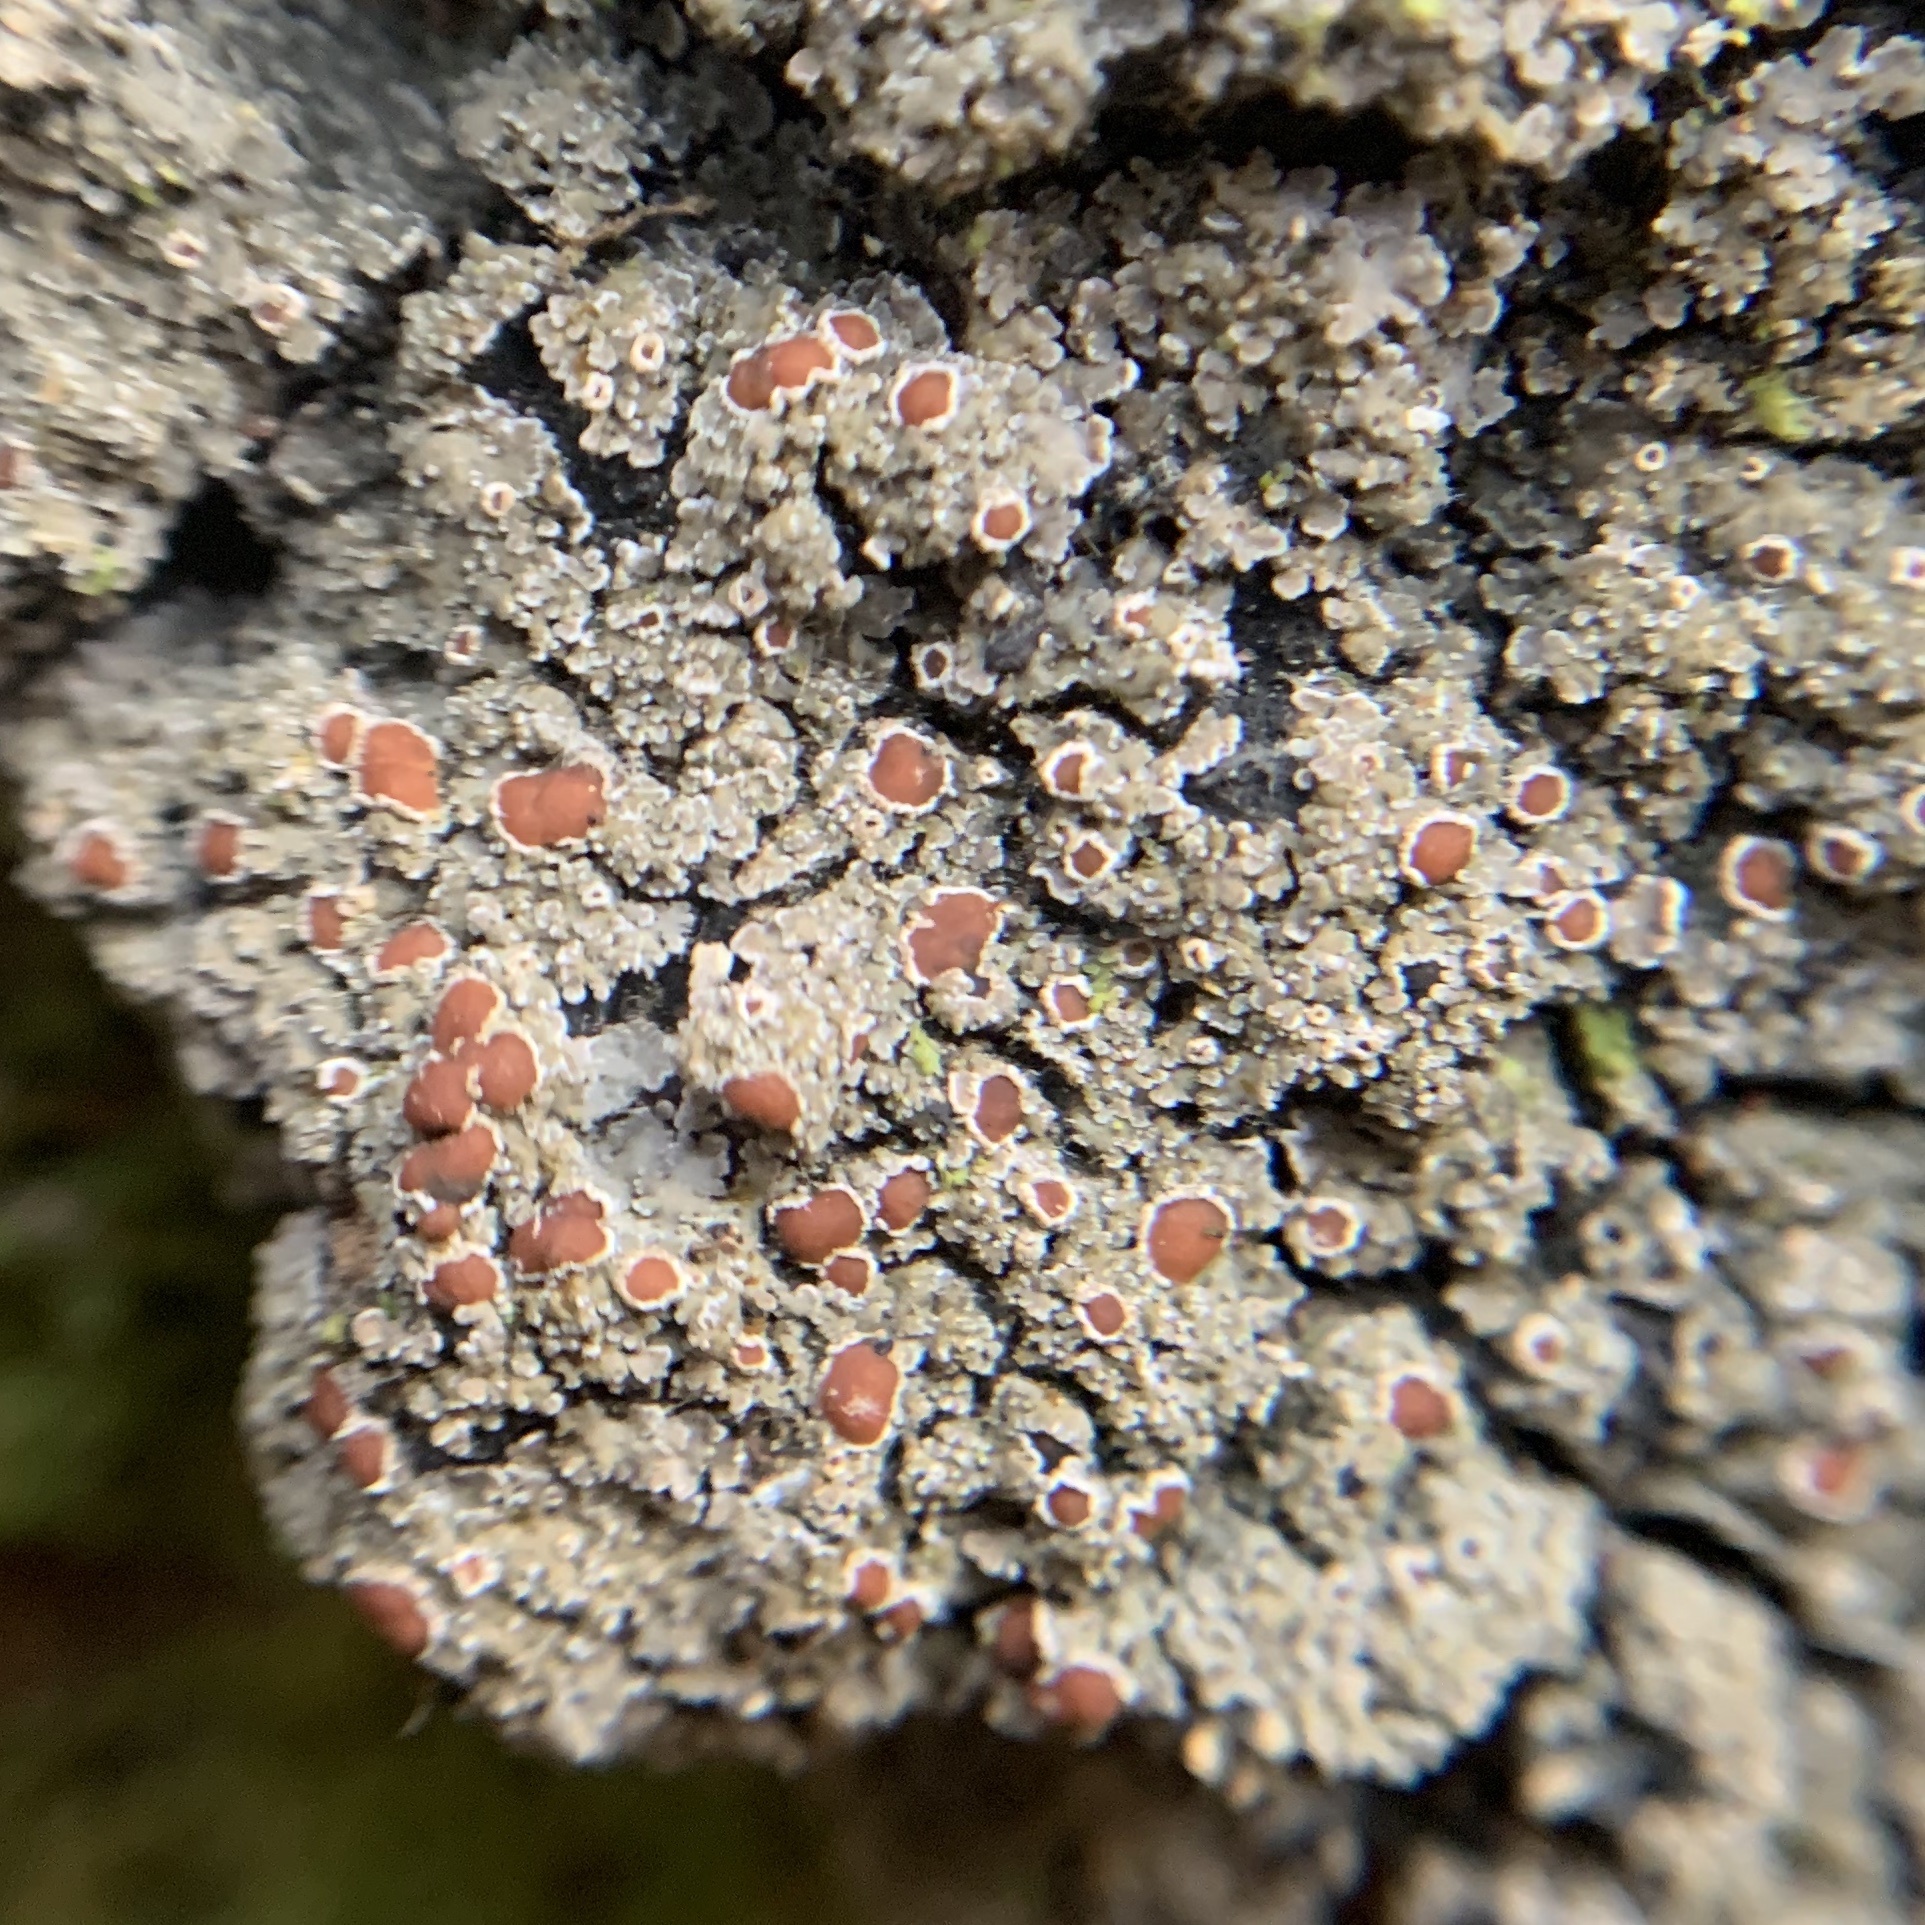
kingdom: Fungi
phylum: Ascomycota
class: Lecanoromycetes
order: Peltigerales
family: Pannariaceae
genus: Fuscopannaria
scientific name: Fuscopannaria leucosticta
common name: Rimmed shingle lichen
